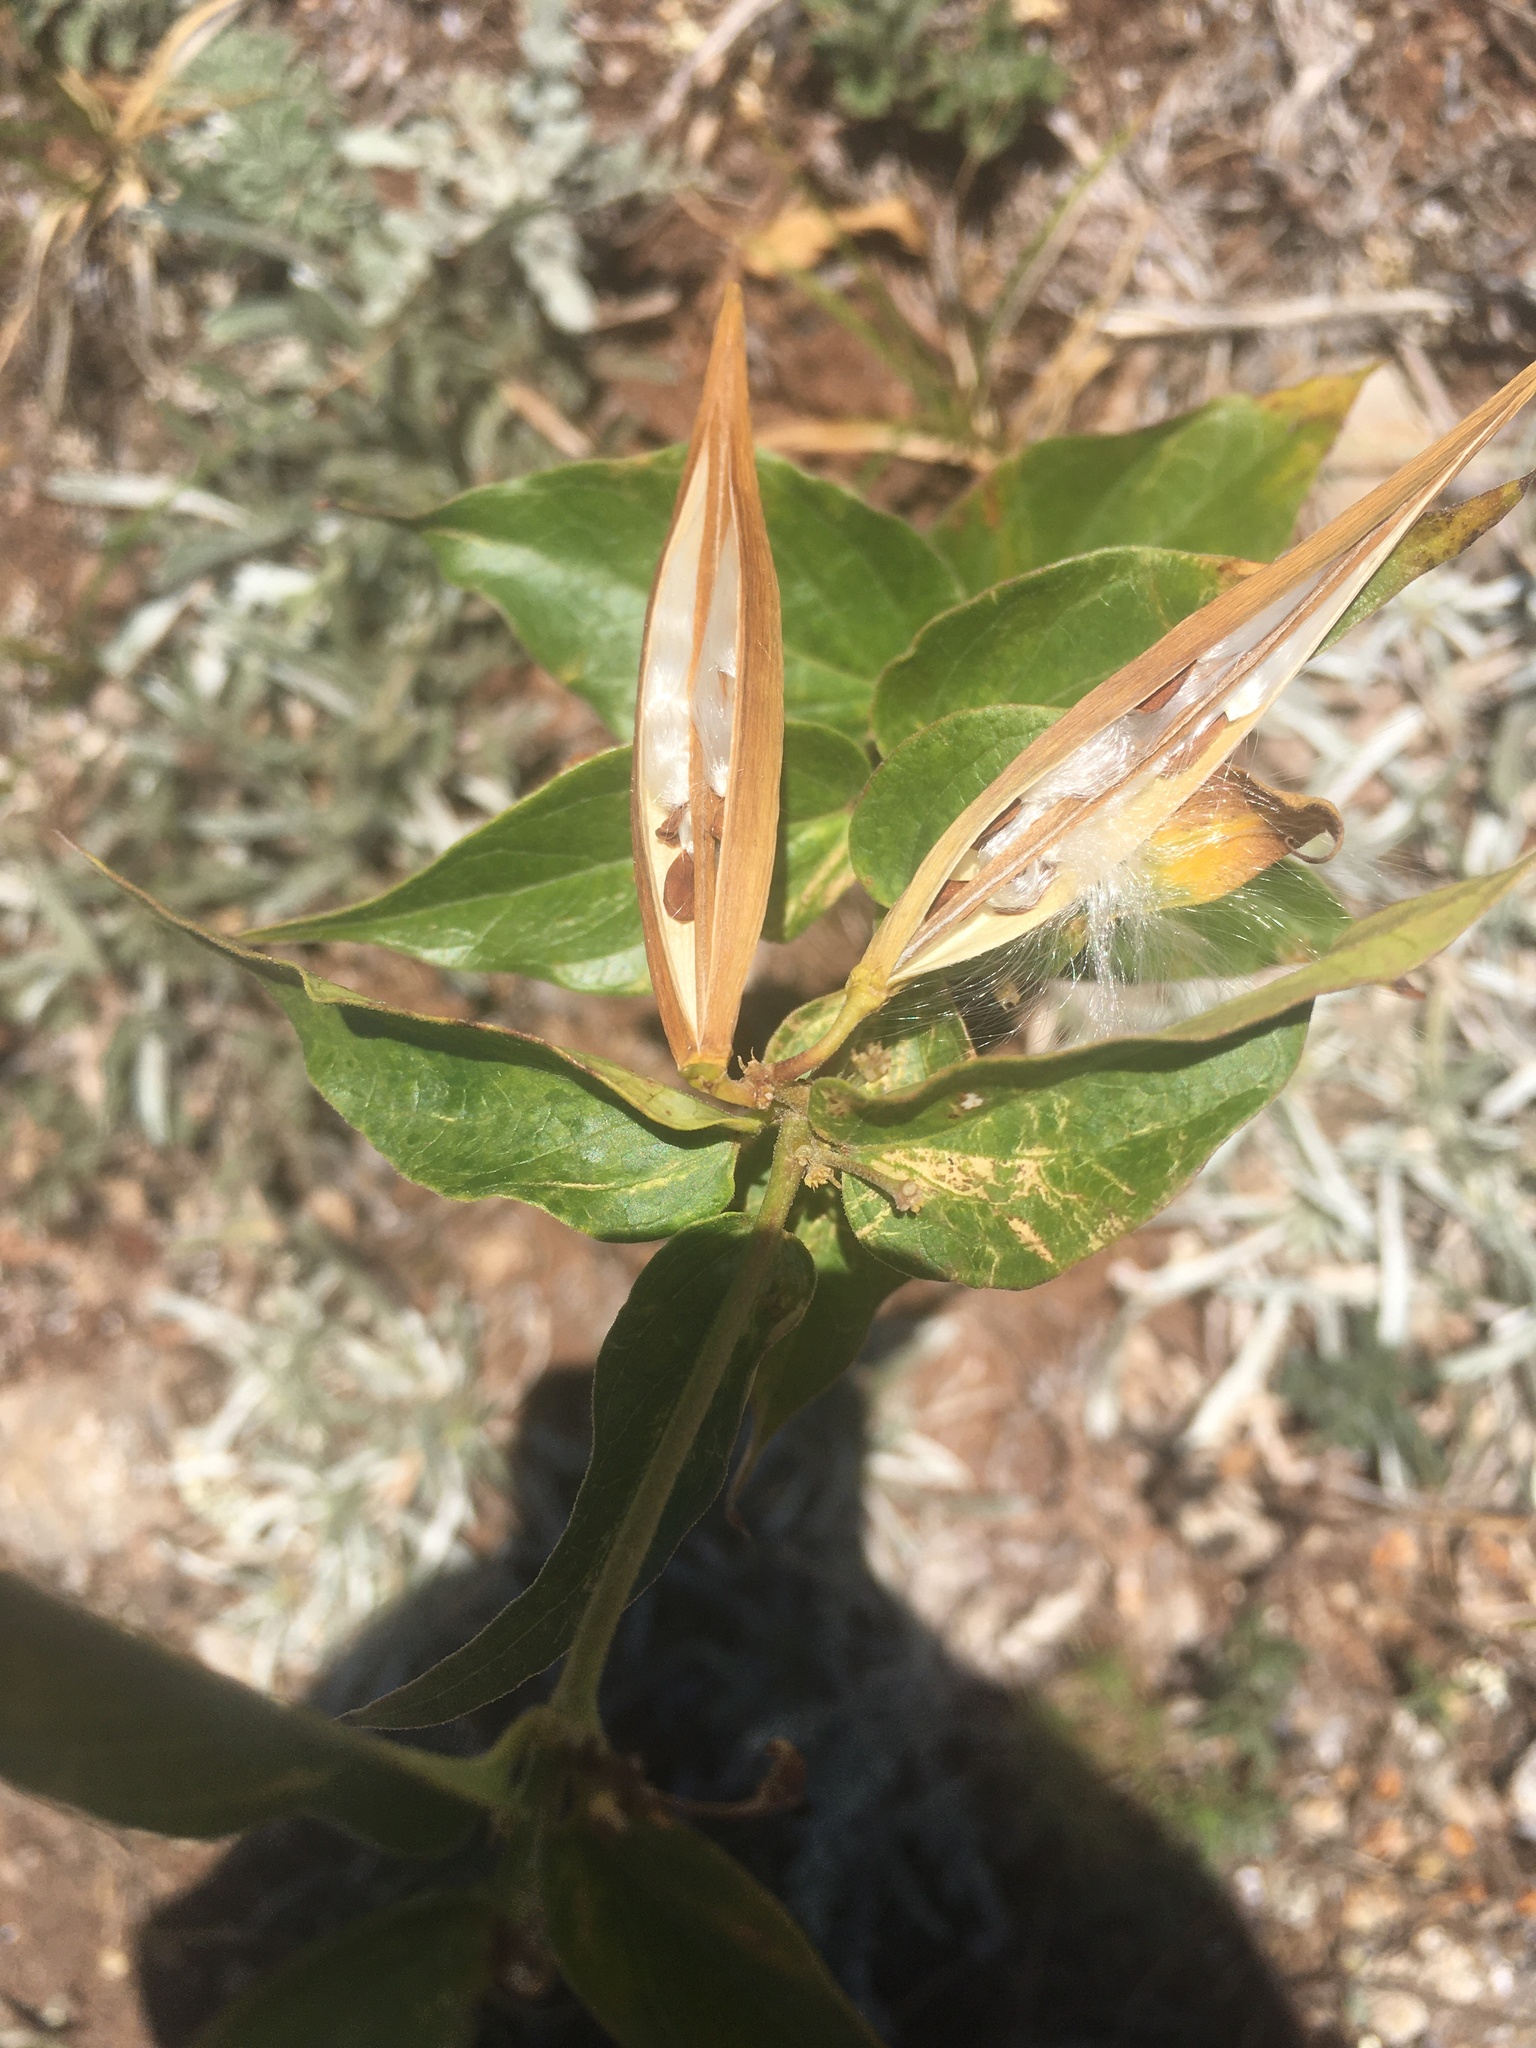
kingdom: Plantae
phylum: Tracheophyta
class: Magnoliopsida
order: Gentianales
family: Apocynaceae
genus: Vincetoxicum
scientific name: Vincetoxicum hirundinaria
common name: White swallowwort
